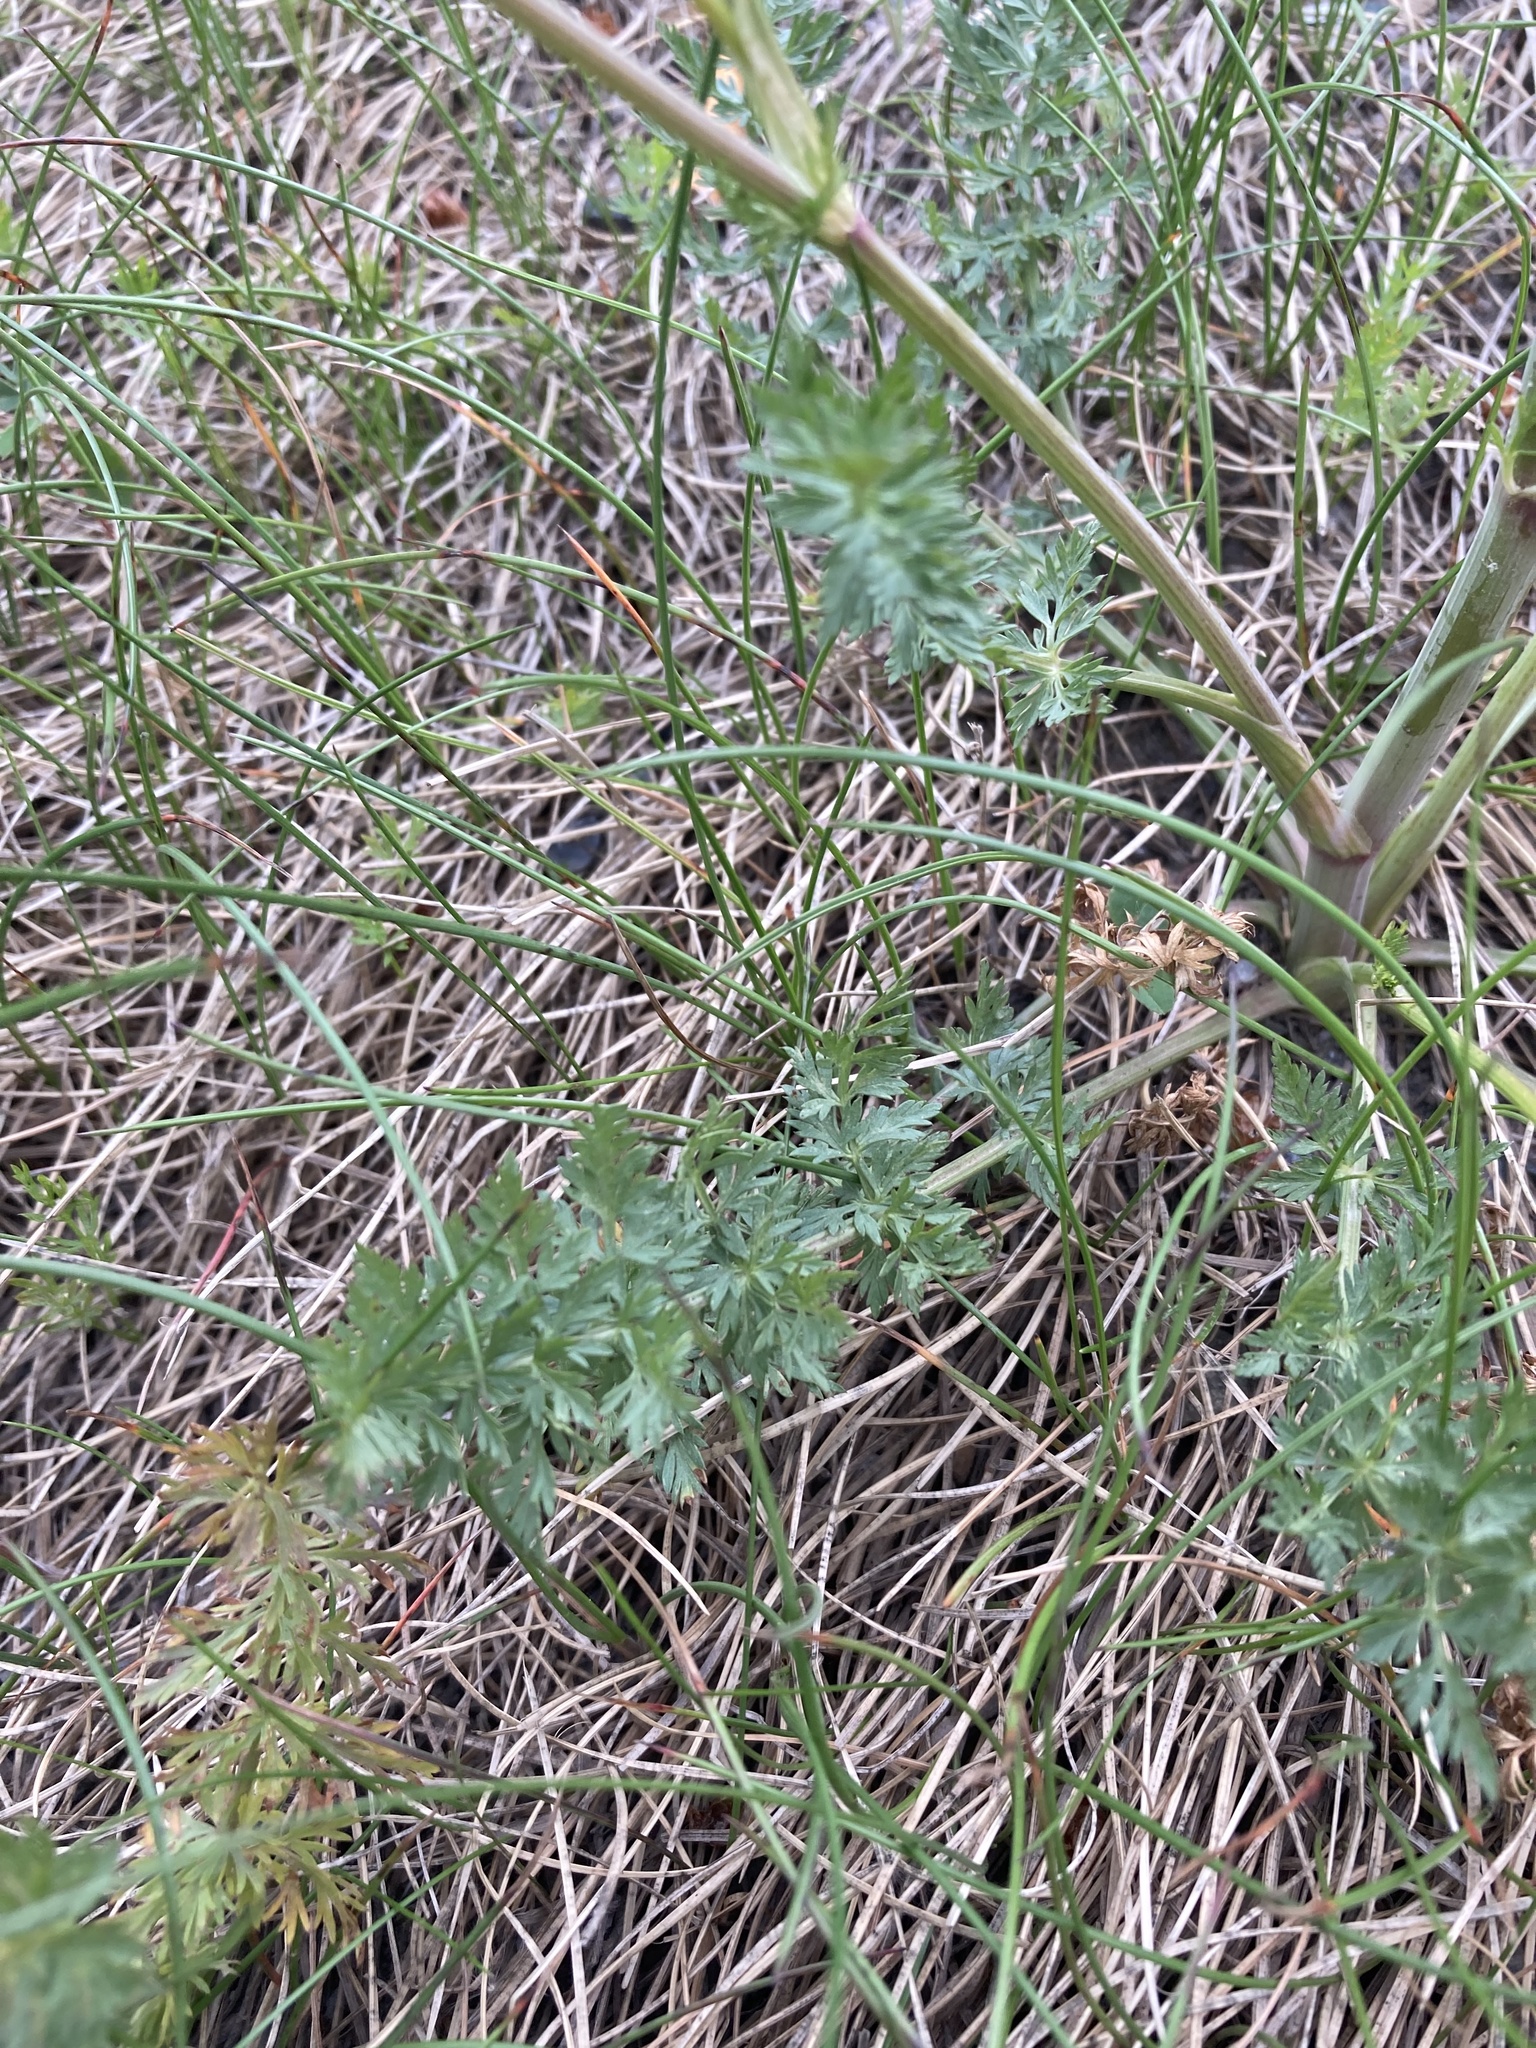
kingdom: Plantae
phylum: Tracheophyta
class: Magnoliopsida
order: Apiales
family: Apiaceae
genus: Carum
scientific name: Carum carvi
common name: Caraway
